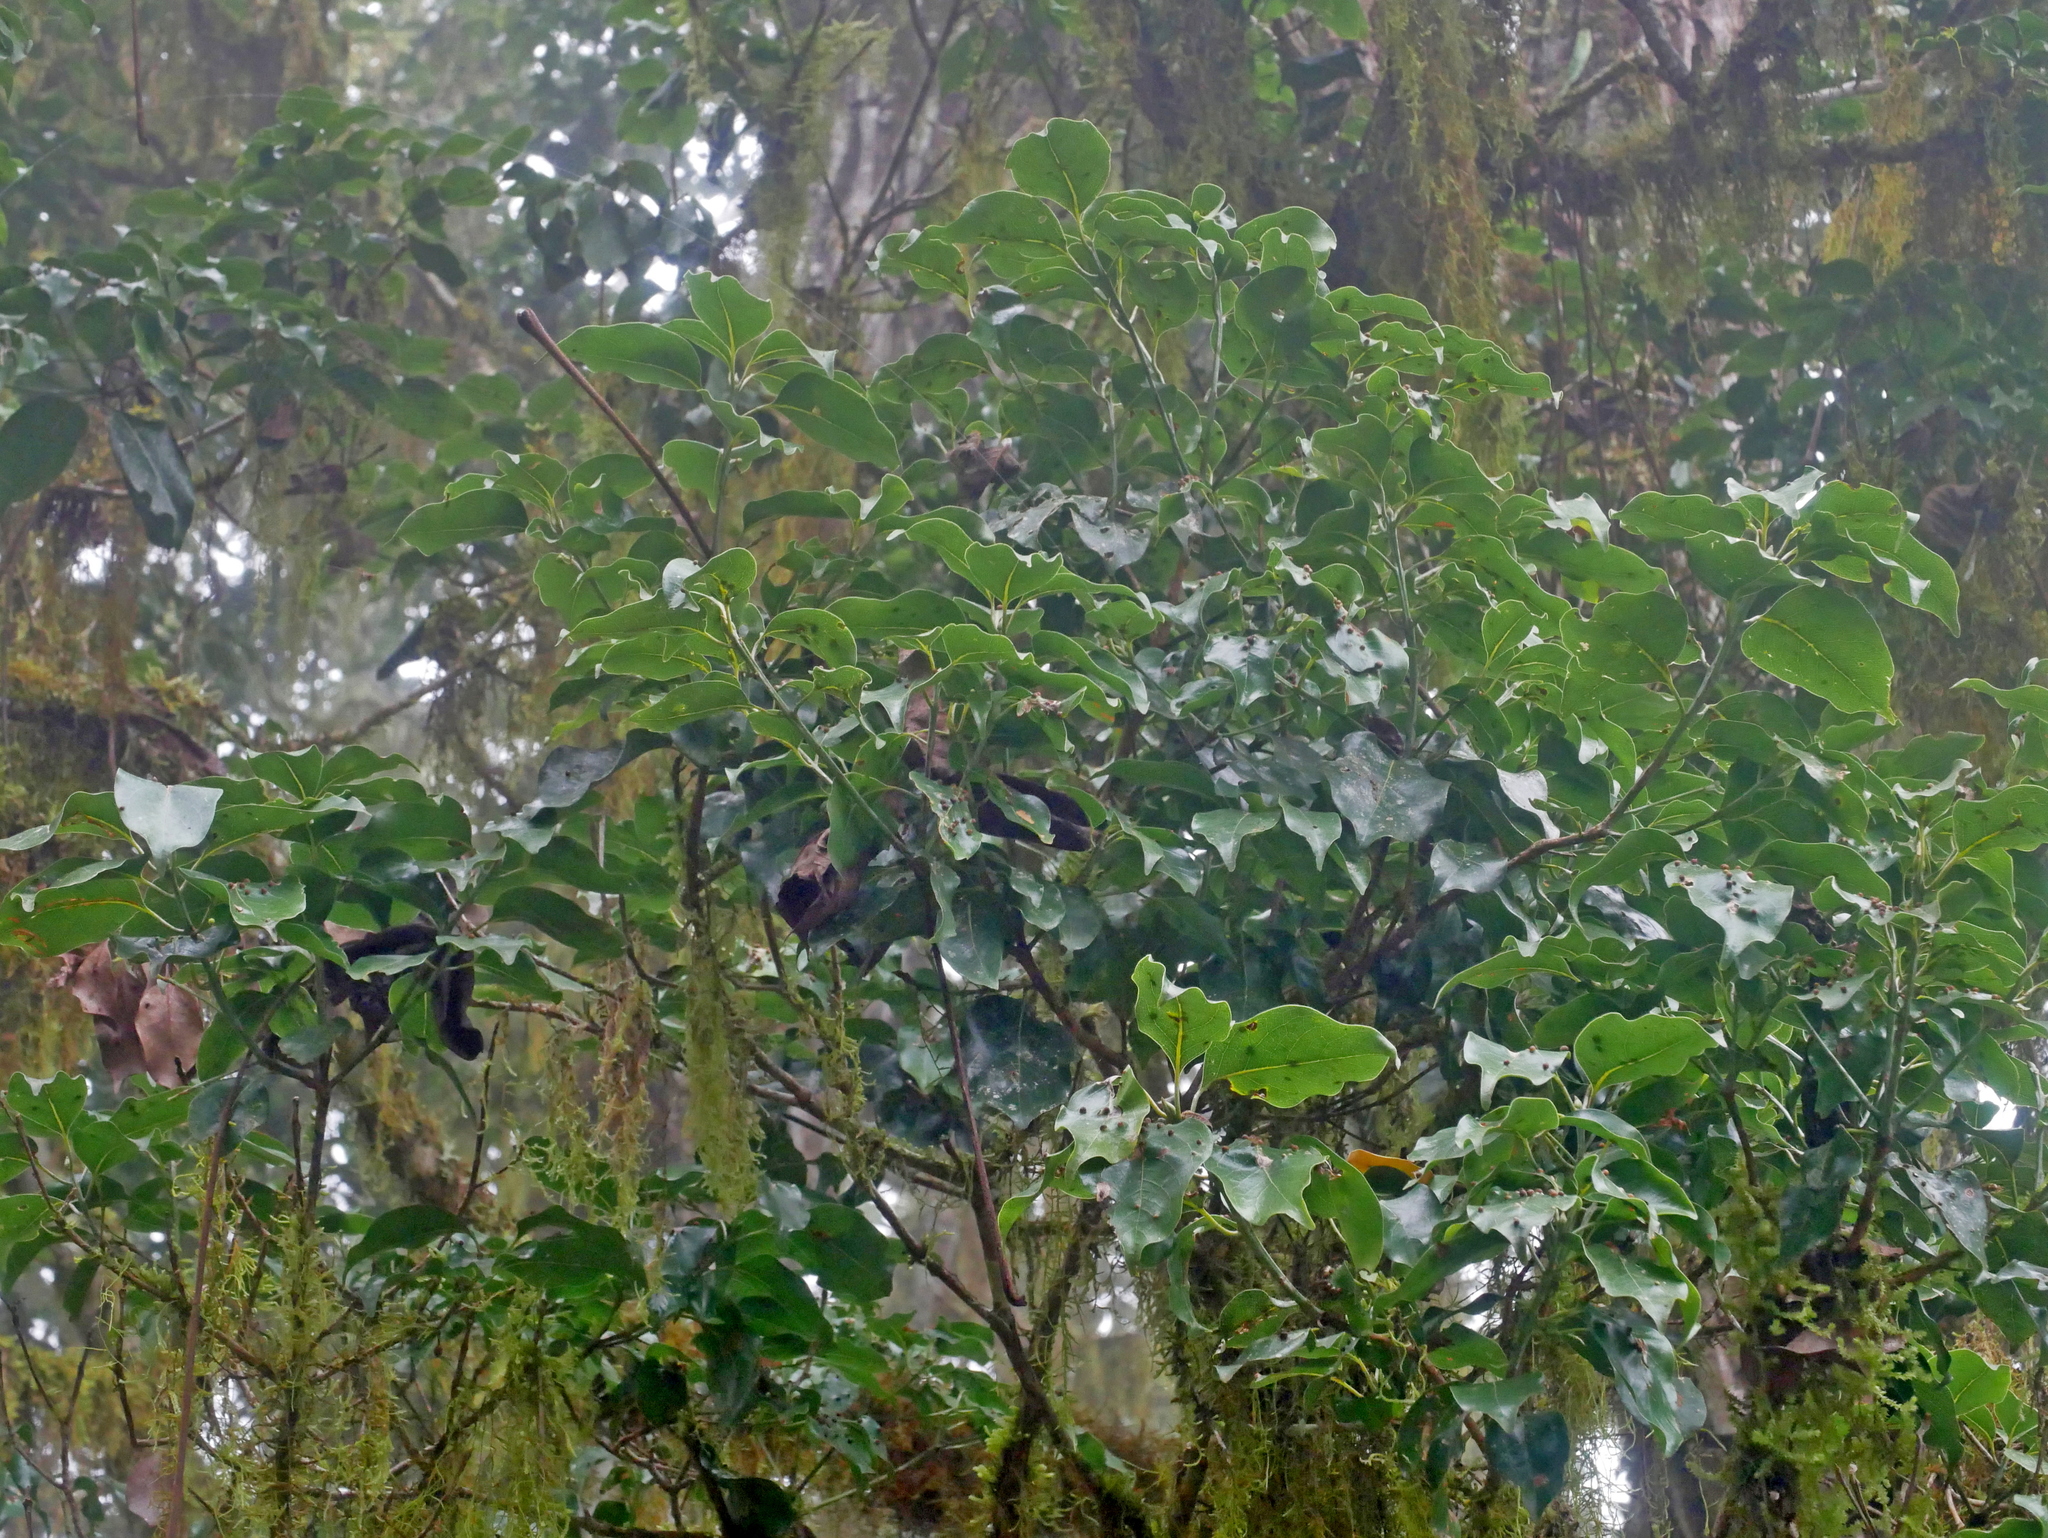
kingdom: Plantae
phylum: Tracheophyta
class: Magnoliopsida
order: Laurales
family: Lauraceae
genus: Cinnamomum
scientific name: Cinnamomum micranthum
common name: Chinese-sassafras
